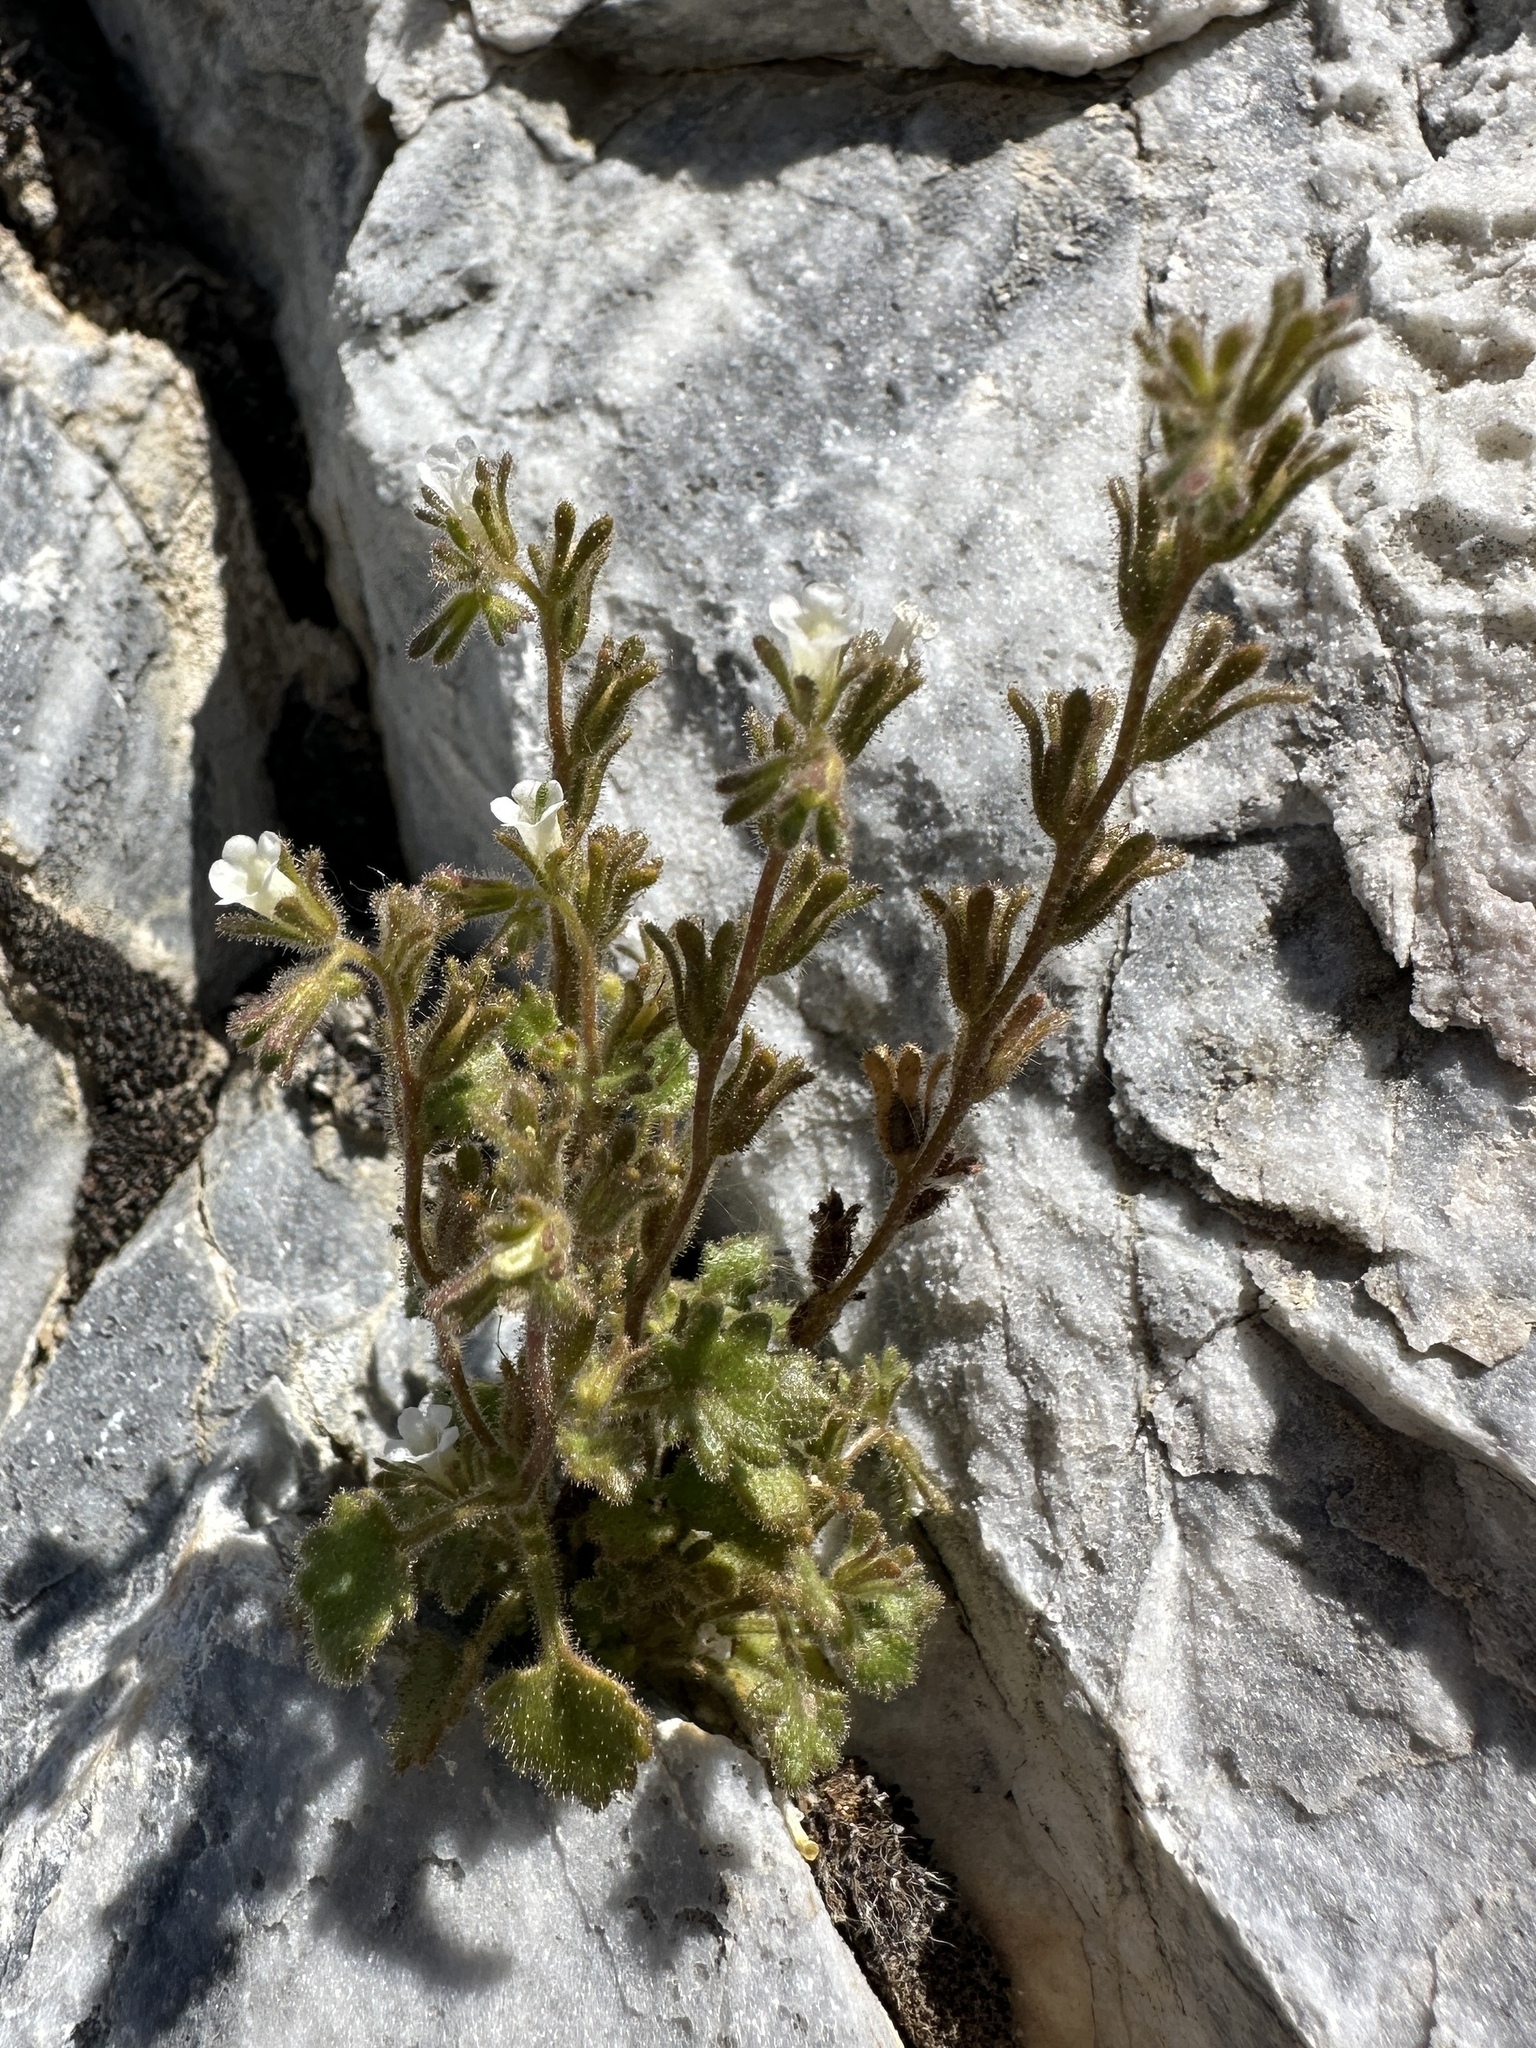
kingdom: Plantae
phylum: Tracheophyta
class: Magnoliopsida
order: Boraginales
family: Hydrophyllaceae
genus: Phacelia
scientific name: Phacelia rotundifolia
